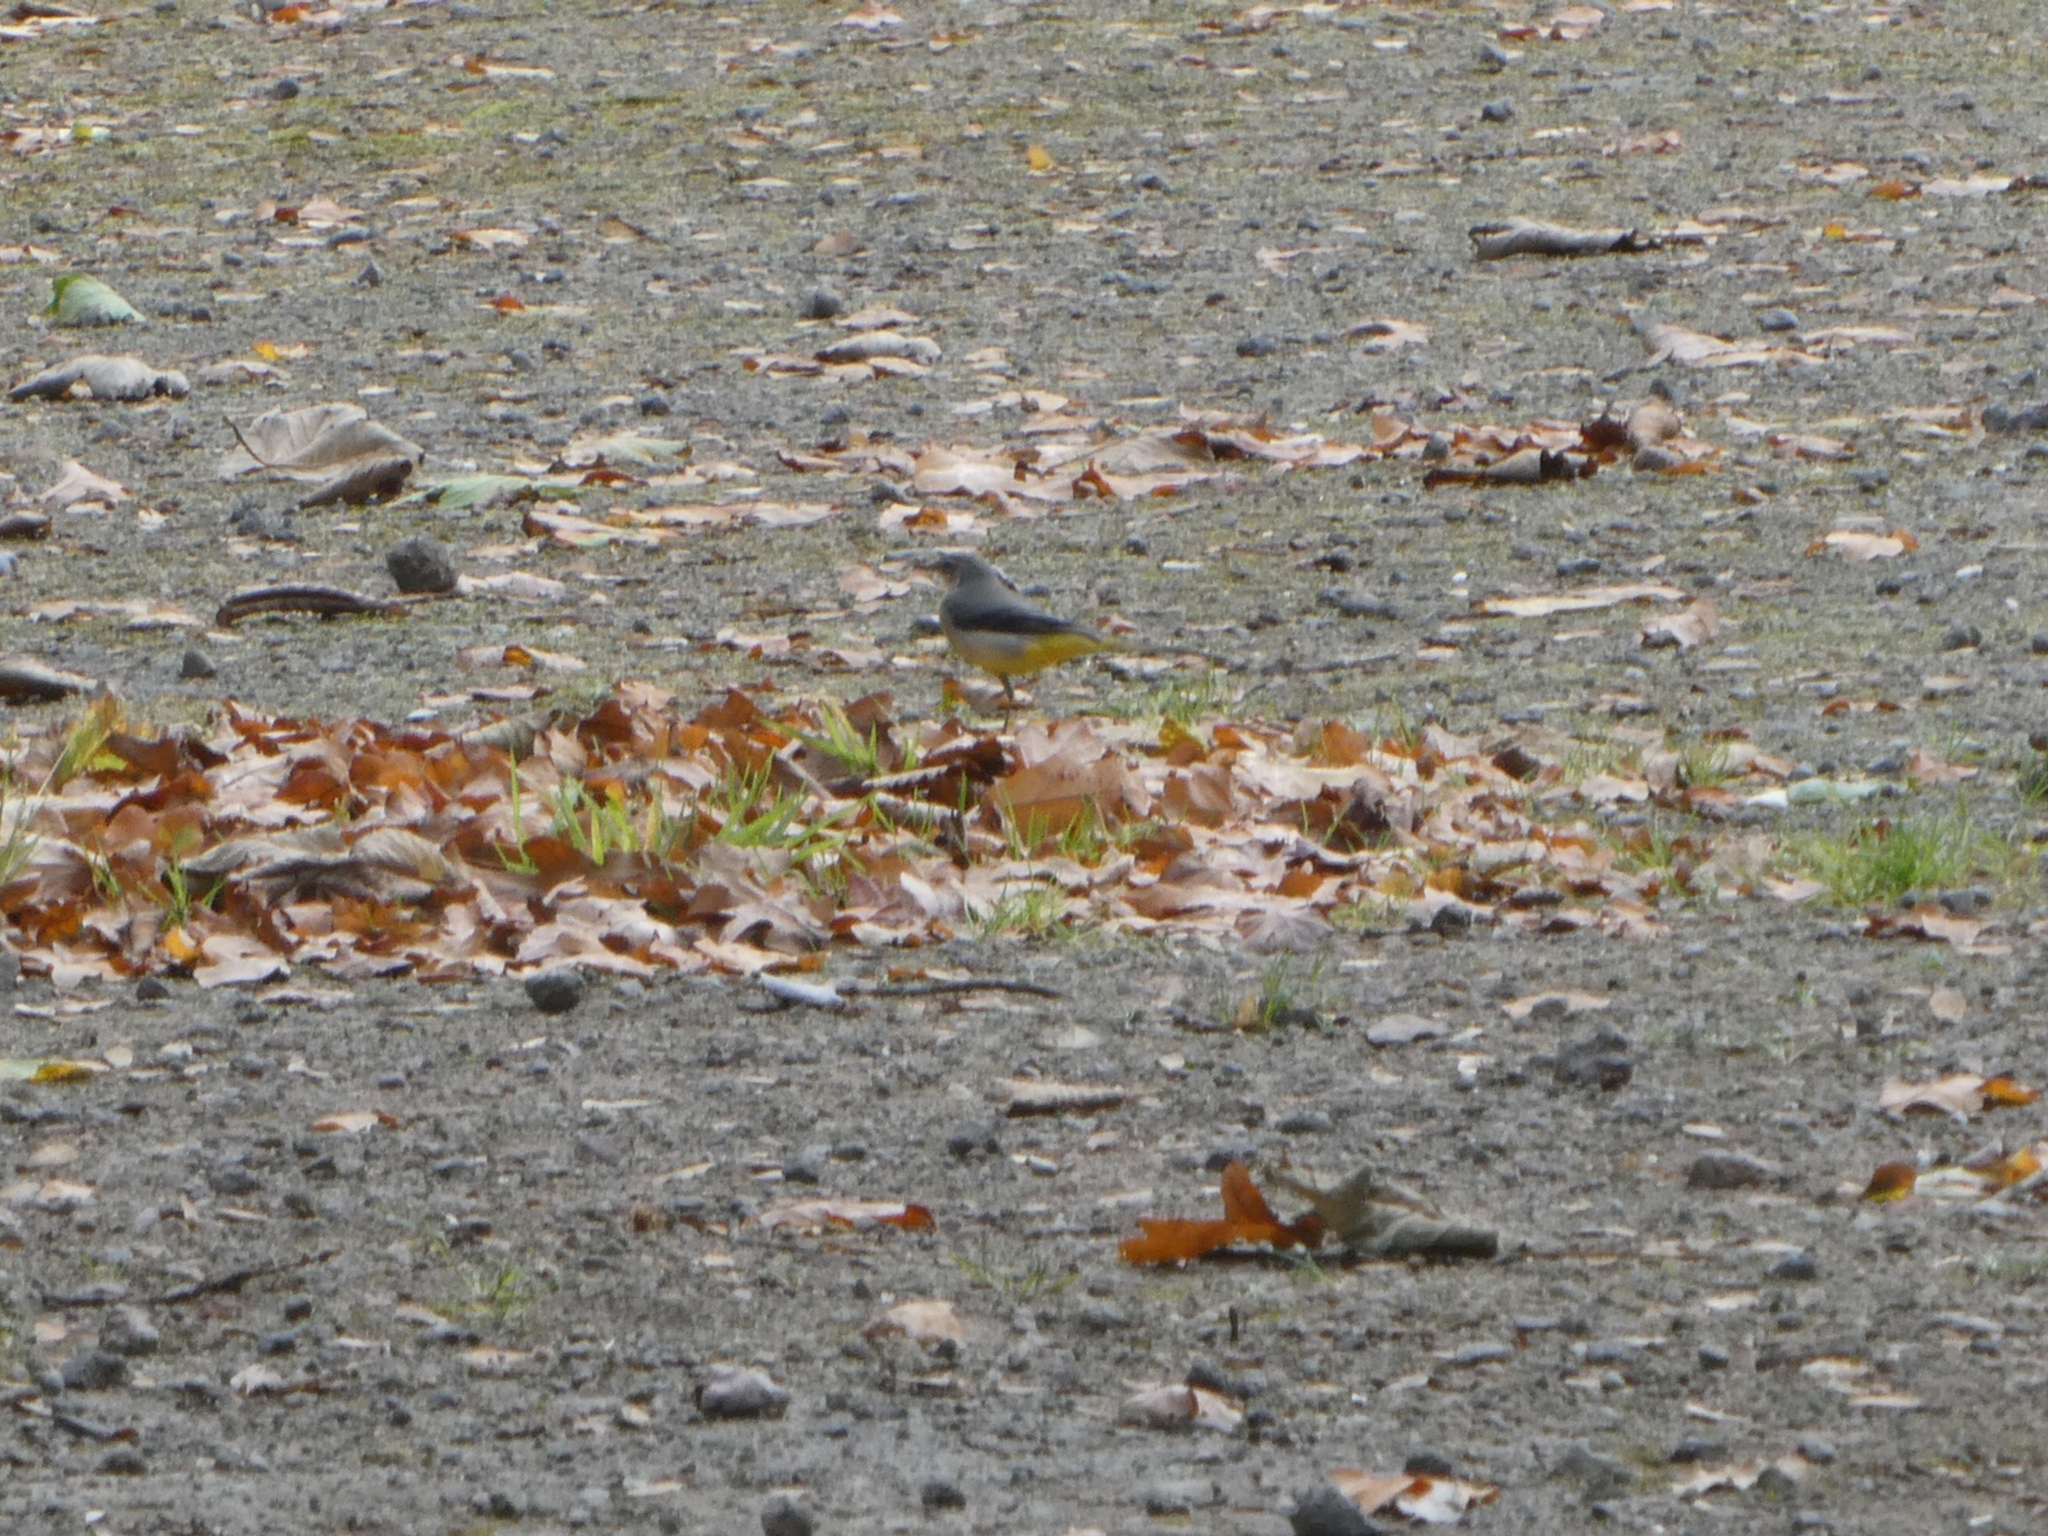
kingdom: Animalia
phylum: Chordata
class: Aves
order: Passeriformes
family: Motacillidae
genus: Motacilla
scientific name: Motacilla cinerea
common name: Grey wagtail
